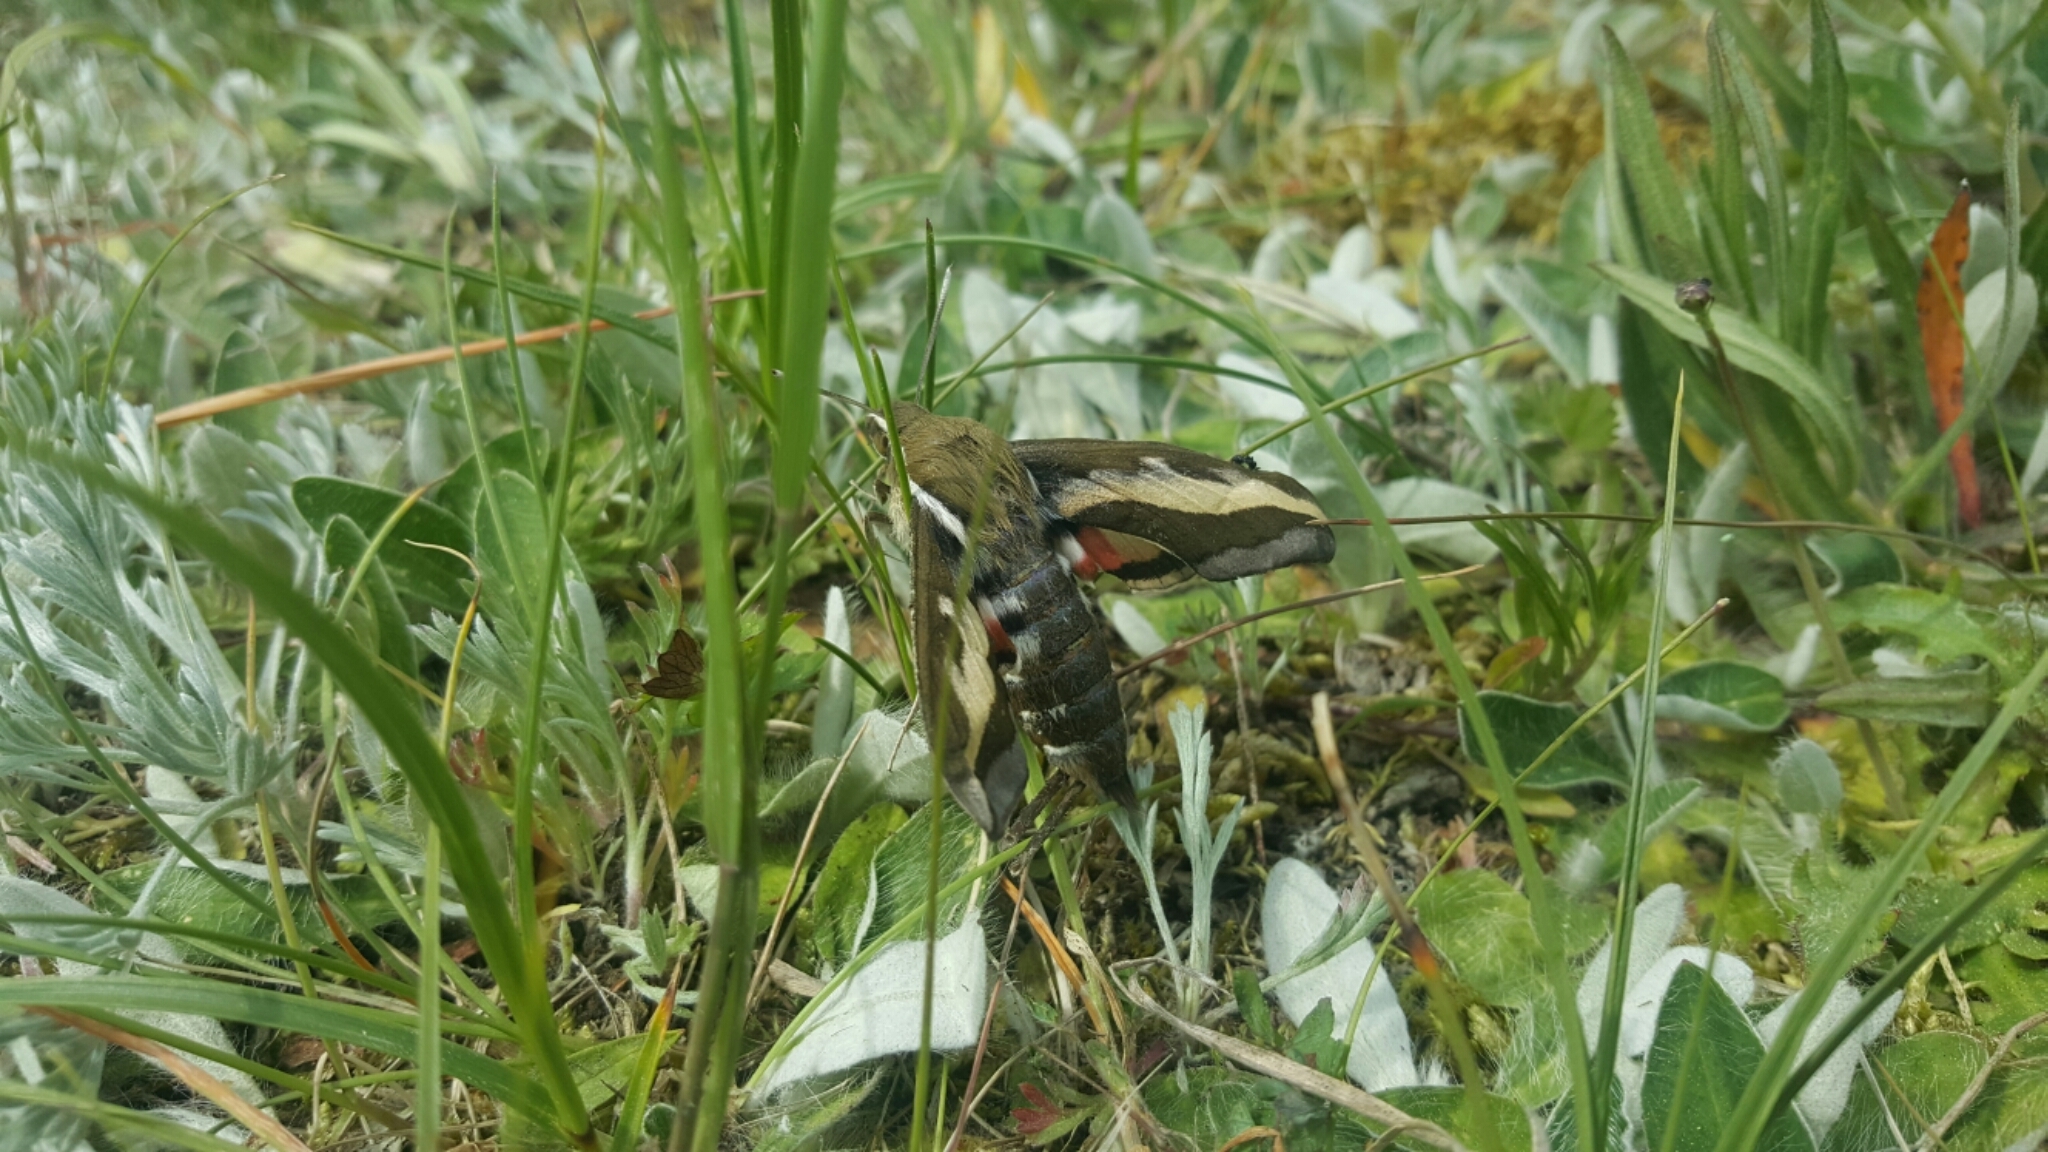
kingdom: Animalia
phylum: Arthropoda
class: Insecta
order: Lepidoptera
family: Sphingidae
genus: Hyles
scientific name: Hyles gallii
